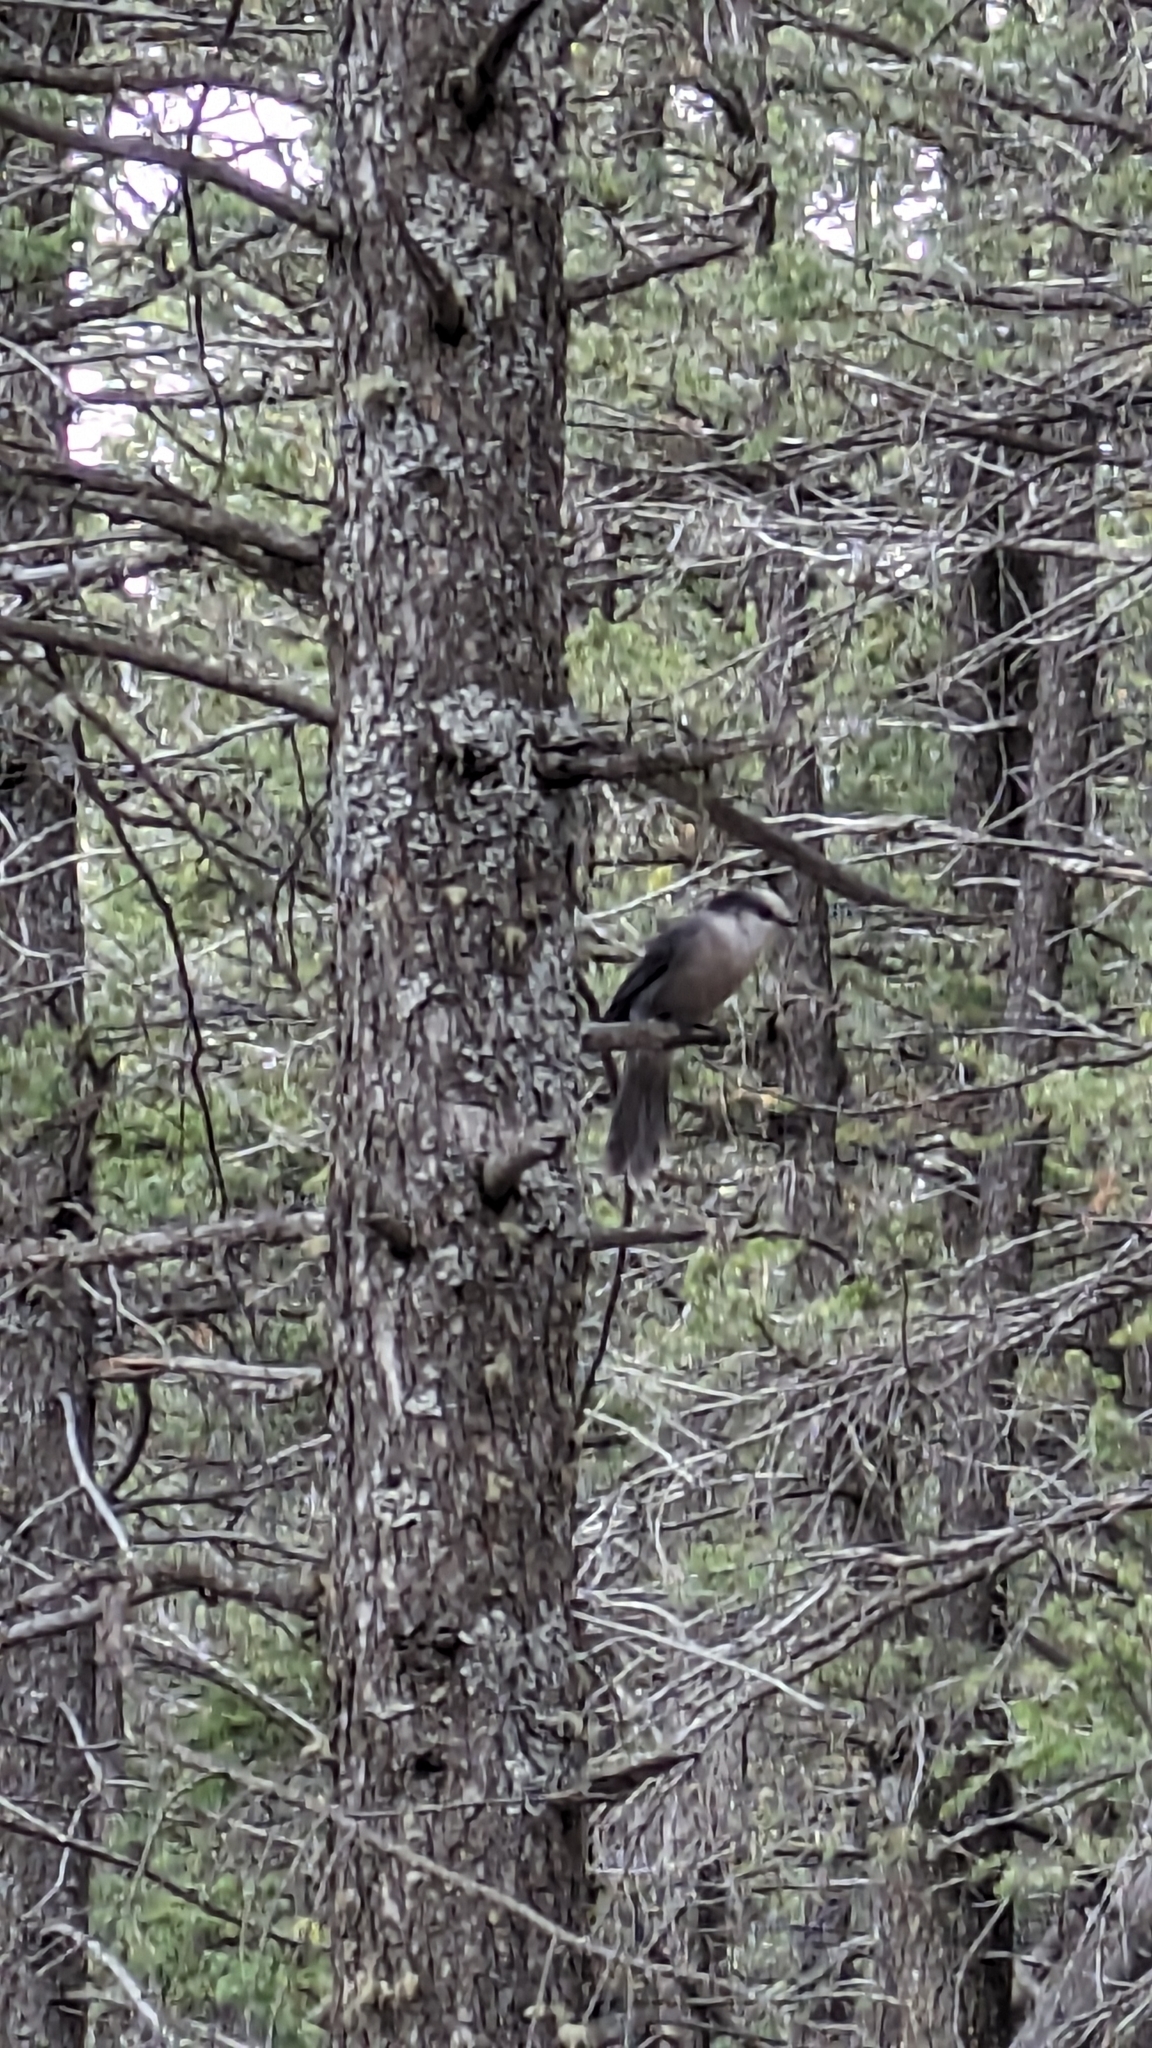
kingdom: Animalia
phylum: Chordata
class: Aves
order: Passeriformes
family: Corvidae
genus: Perisoreus
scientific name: Perisoreus canadensis
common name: Gray jay
